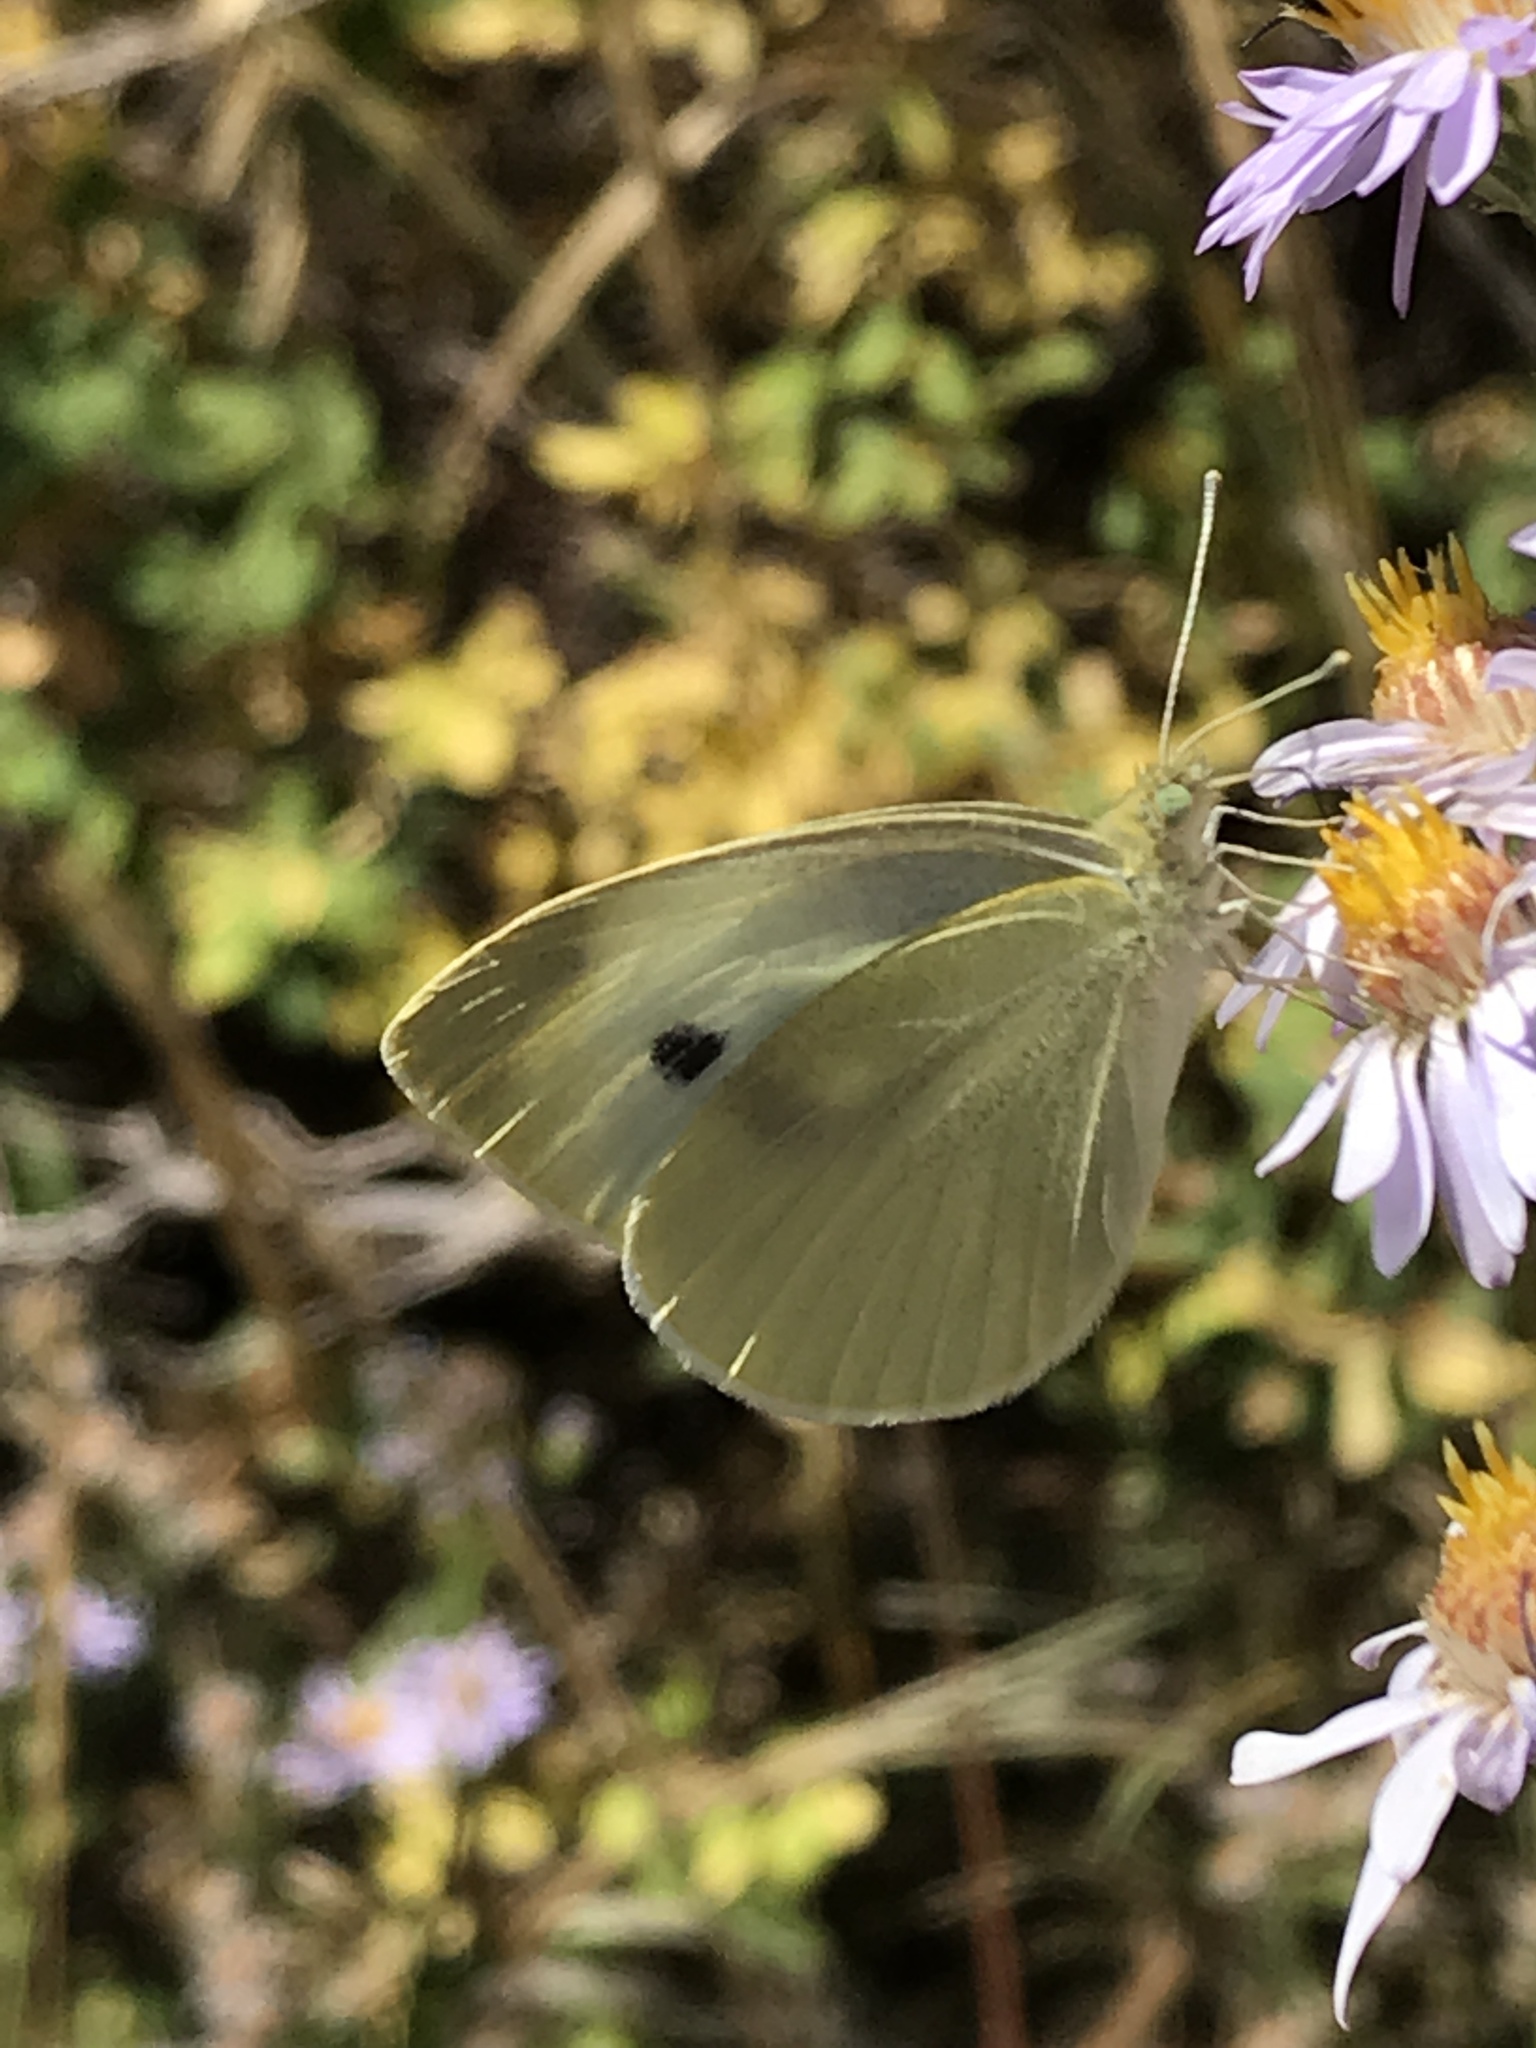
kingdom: Animalia
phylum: Arthropoda
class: Insecta
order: Lepidoptera
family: Pieridae
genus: Pieris
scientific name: Pieris rapae
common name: Small white
